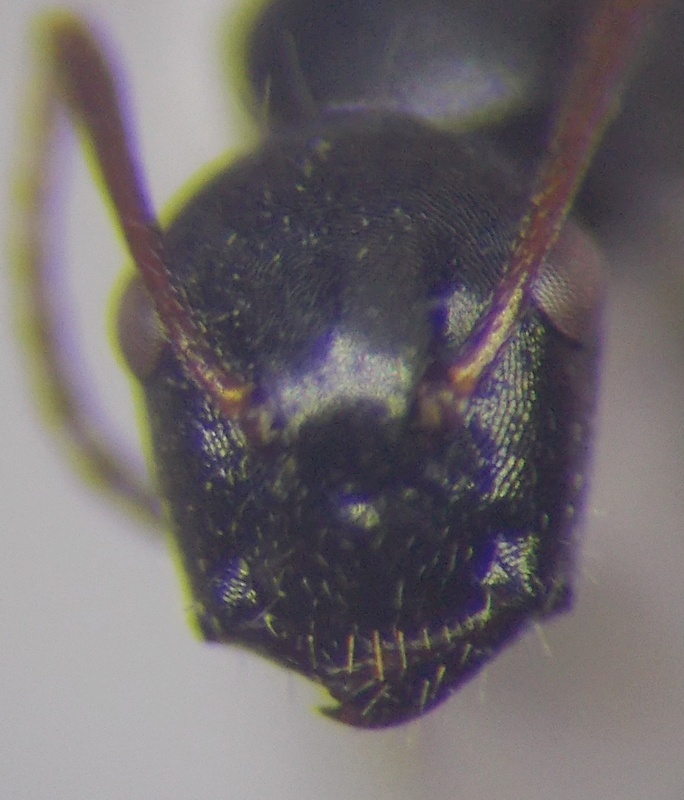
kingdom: Animalia
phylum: Arthropoda
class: Insecta
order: Hymenoptera
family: Formicidae
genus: Camponotus
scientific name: Camponotus piceus
